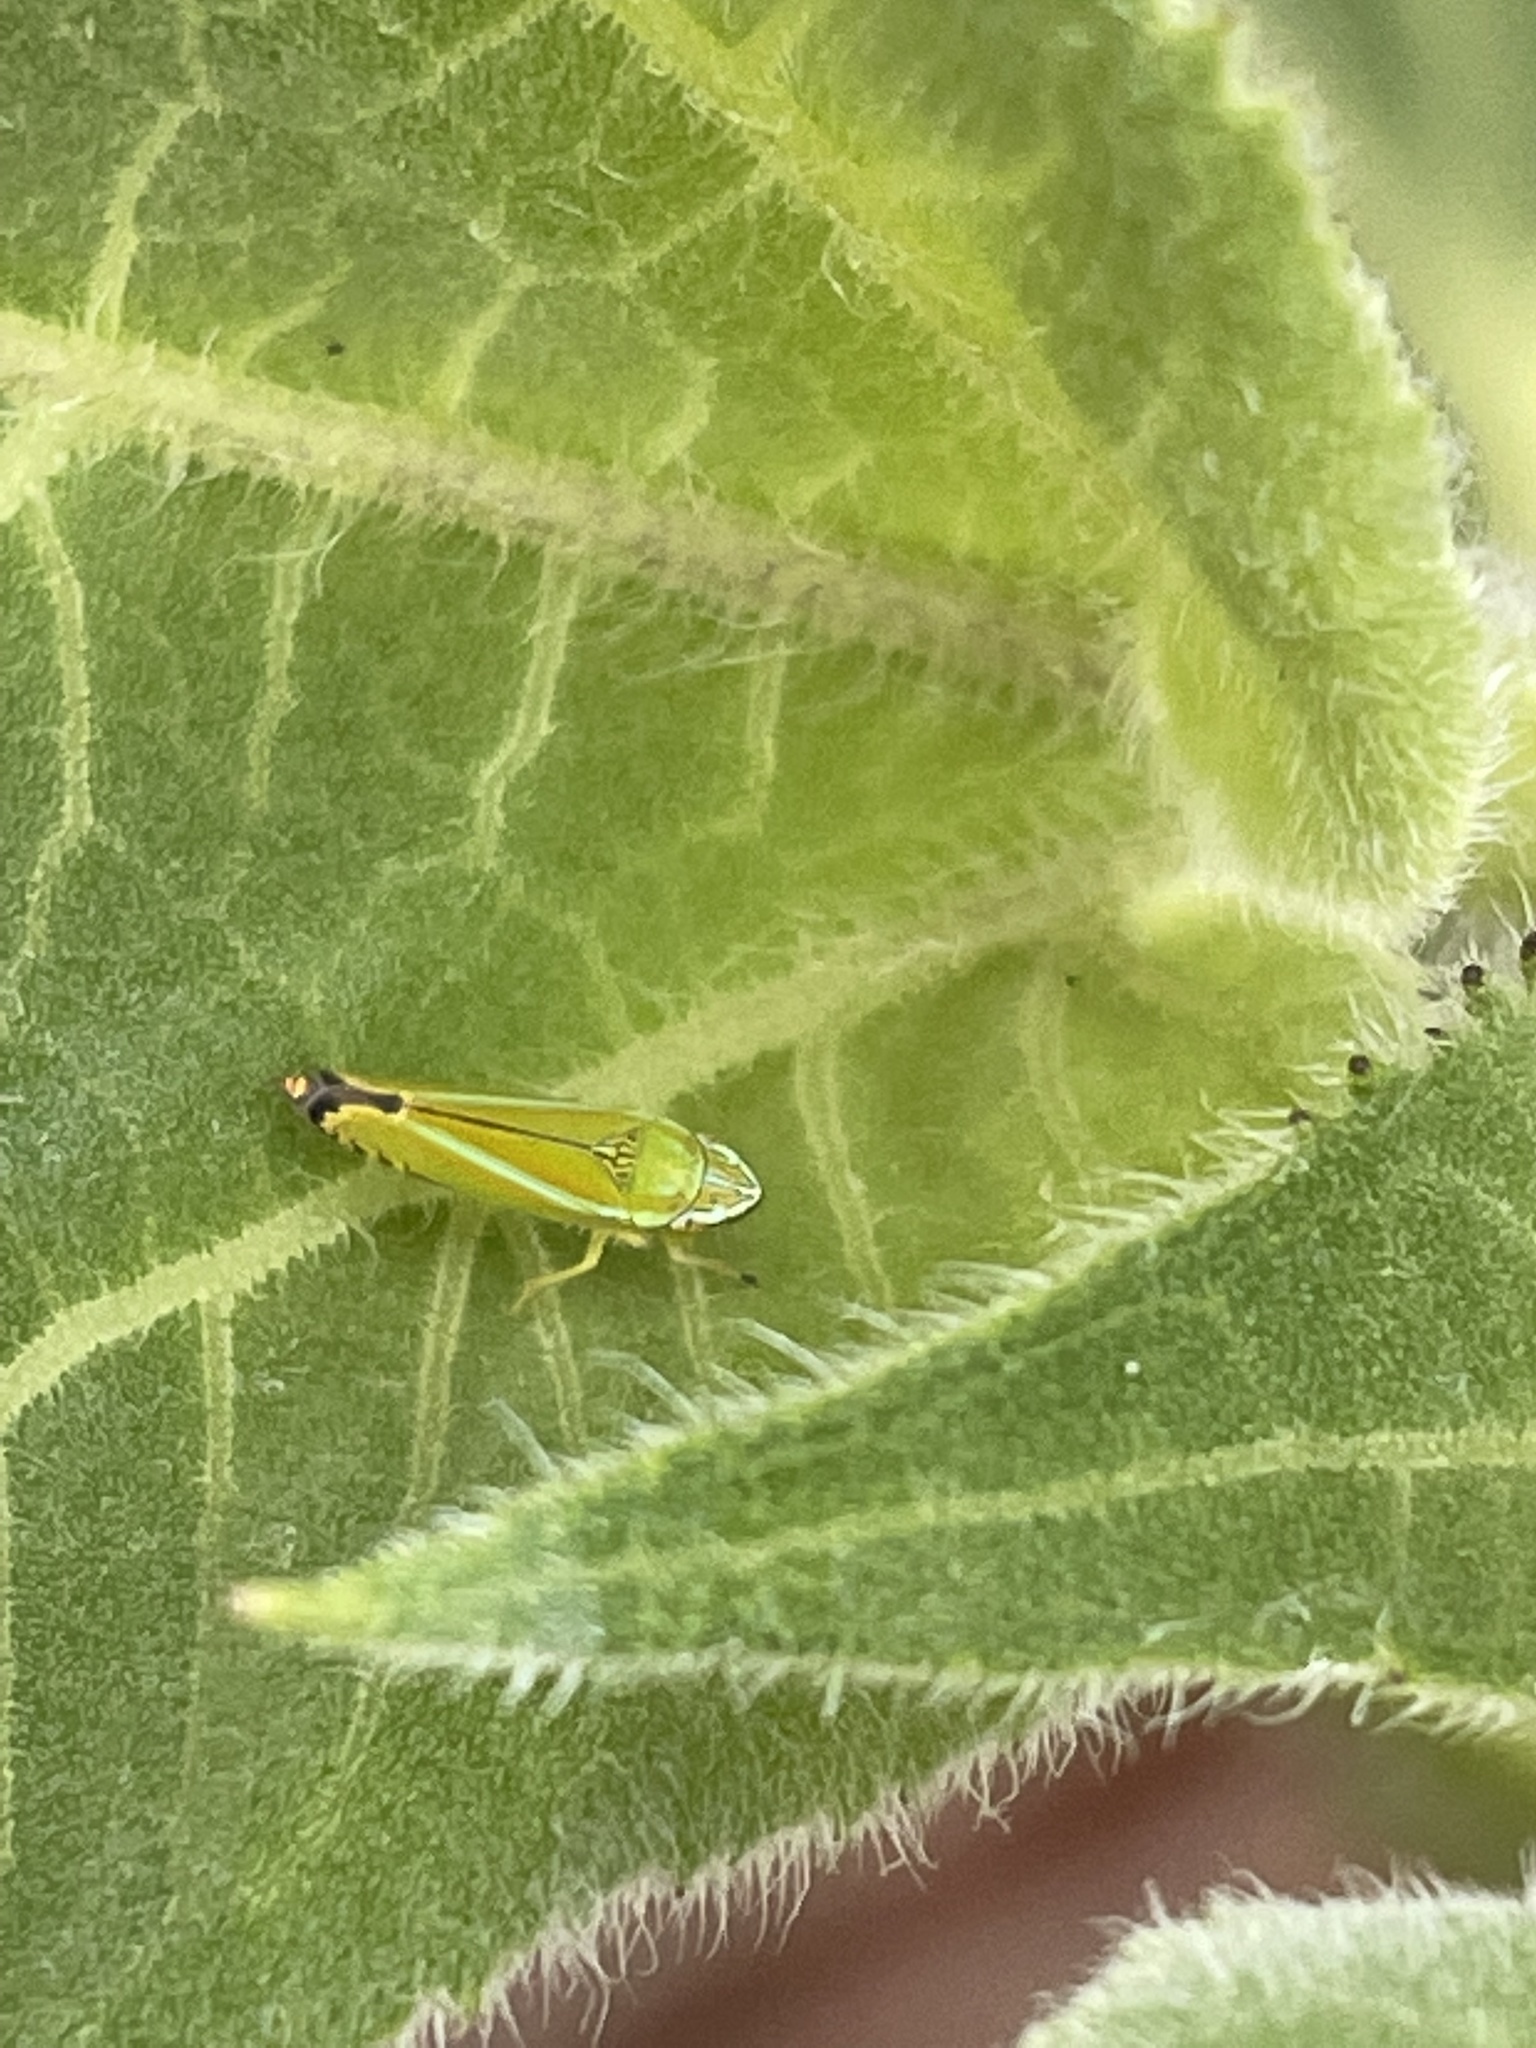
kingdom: Animalia
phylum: Arthropoda
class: Insecta
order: Hemiptera
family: Cicadellidae
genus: Graphocephala
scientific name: Graphocephala versuta
